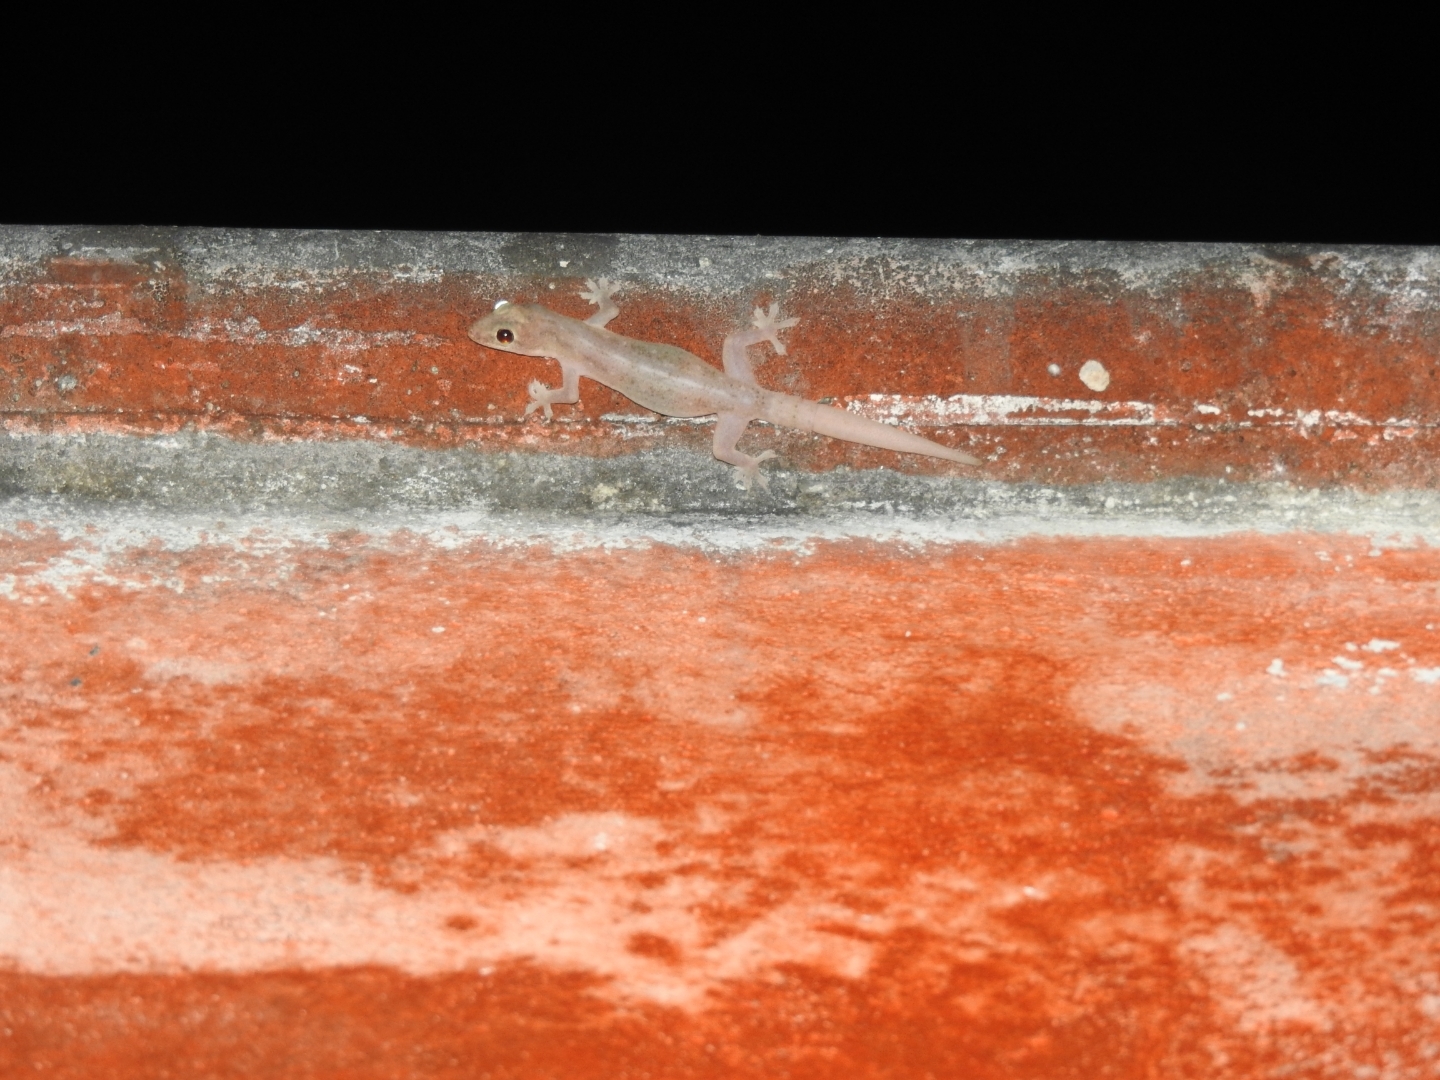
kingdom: Animalia
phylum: Chordata
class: Squamata
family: Gekkonidae
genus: Hemidactylus
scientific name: Hemidactylus frenatus
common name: Common house gecko
